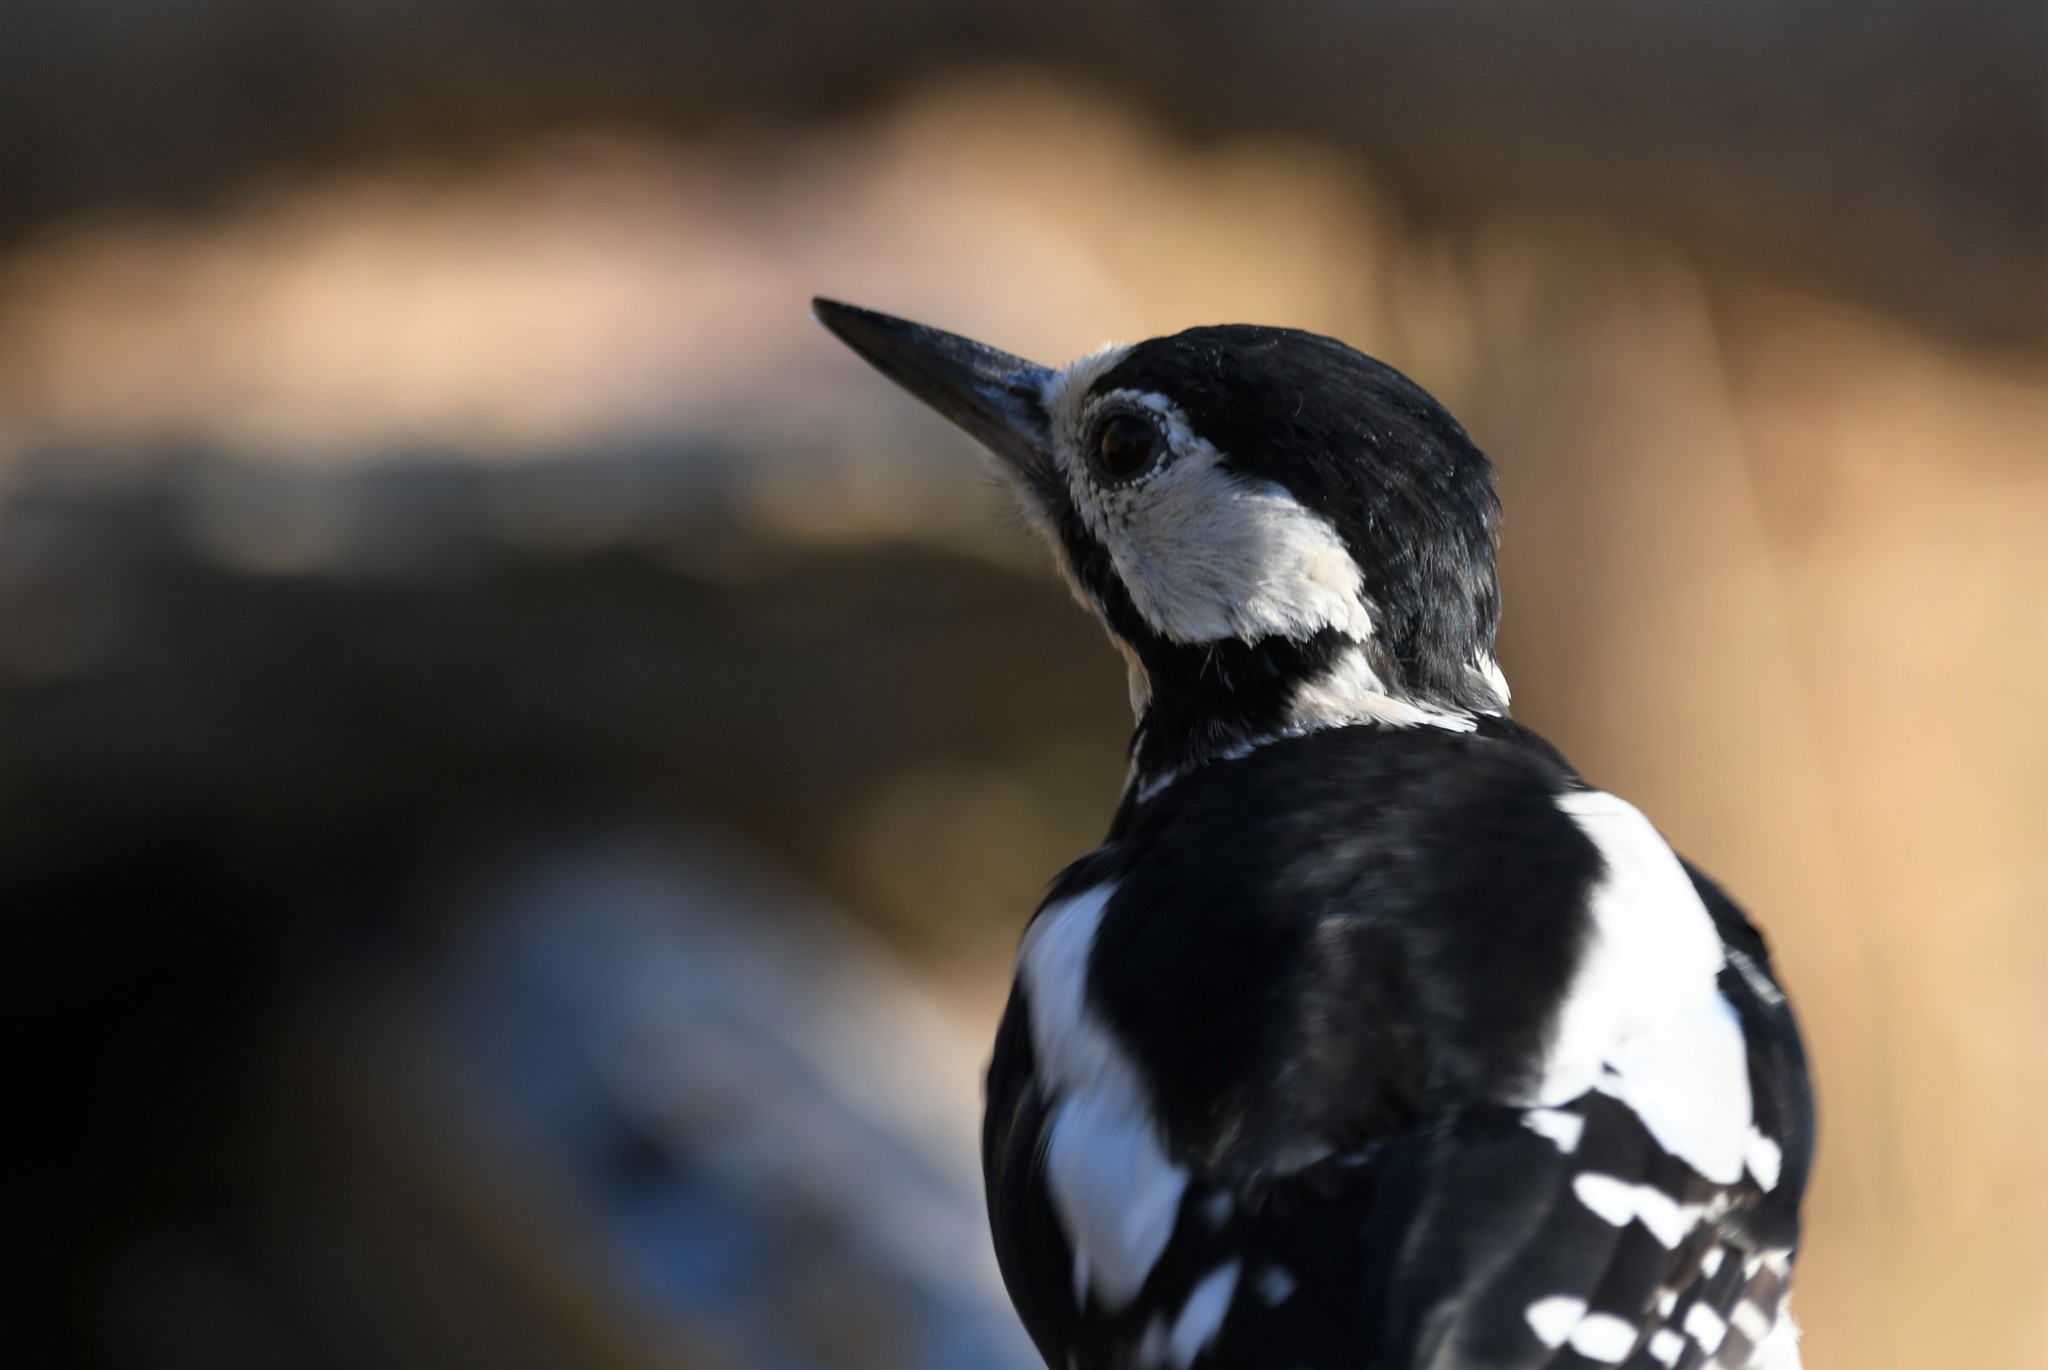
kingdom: Animalia
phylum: Chordata
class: Aves
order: Piciformes
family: Picidae
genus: Dendrocopos
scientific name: Dendrocopos major
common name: Great spotted woodpecker
